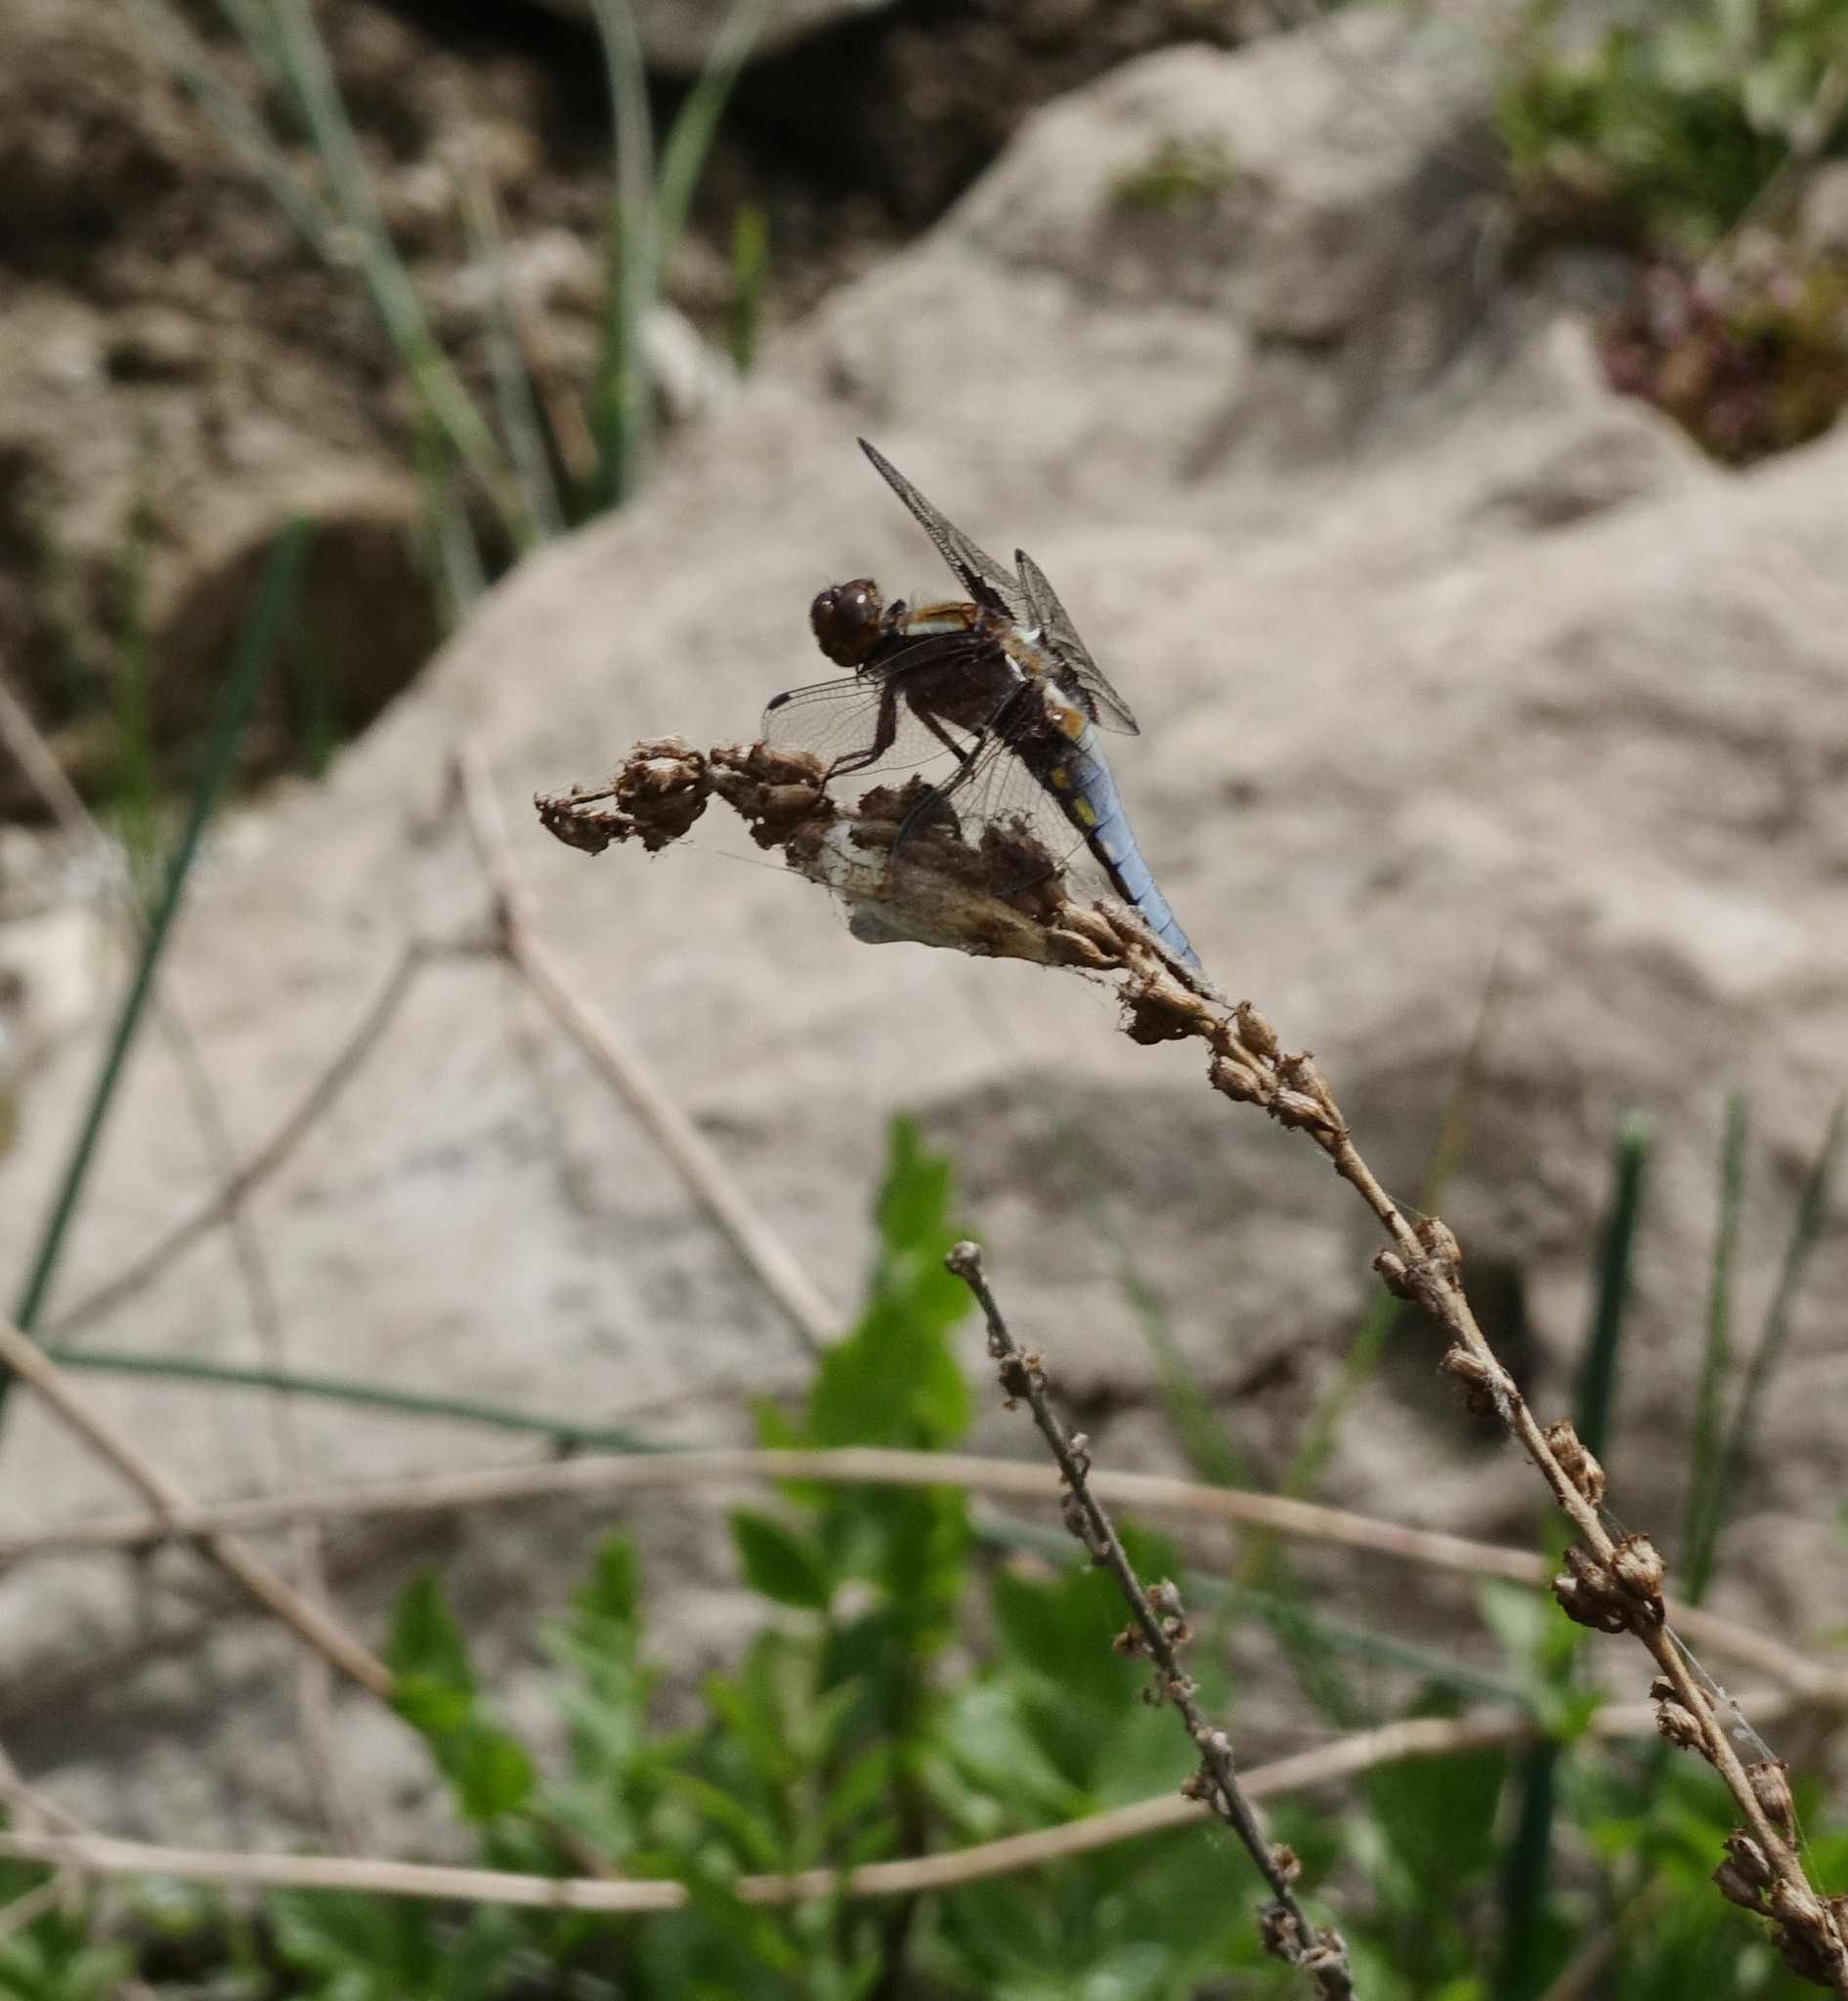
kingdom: Animalia
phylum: Arthropoda
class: Insecta
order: Odonata
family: Libellulidae
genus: Libellula
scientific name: Libellula depressa
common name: Broad-bodied chaser
